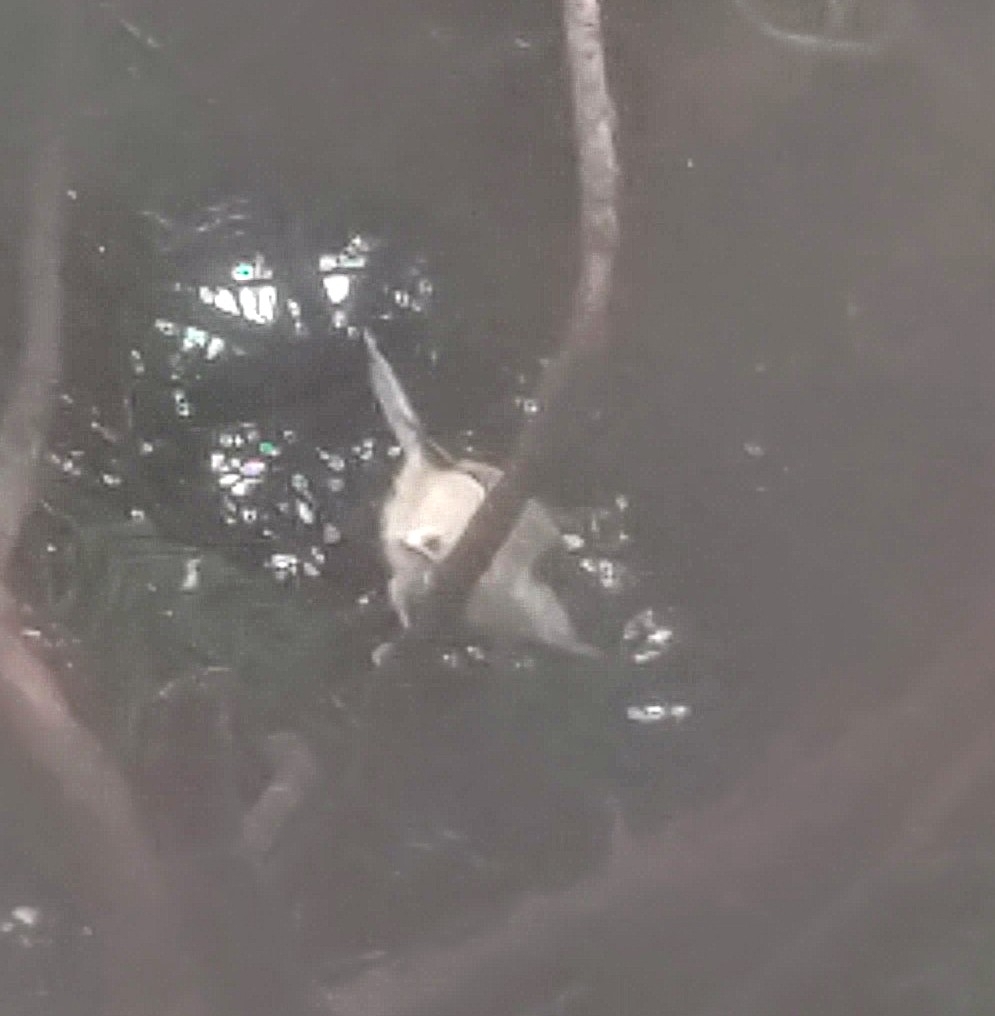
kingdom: Animalia
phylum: Chordata
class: Aves
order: Passeriformes
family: Paridae
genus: Poecile
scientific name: Poecile carolinensis
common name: Carolina chickadee
